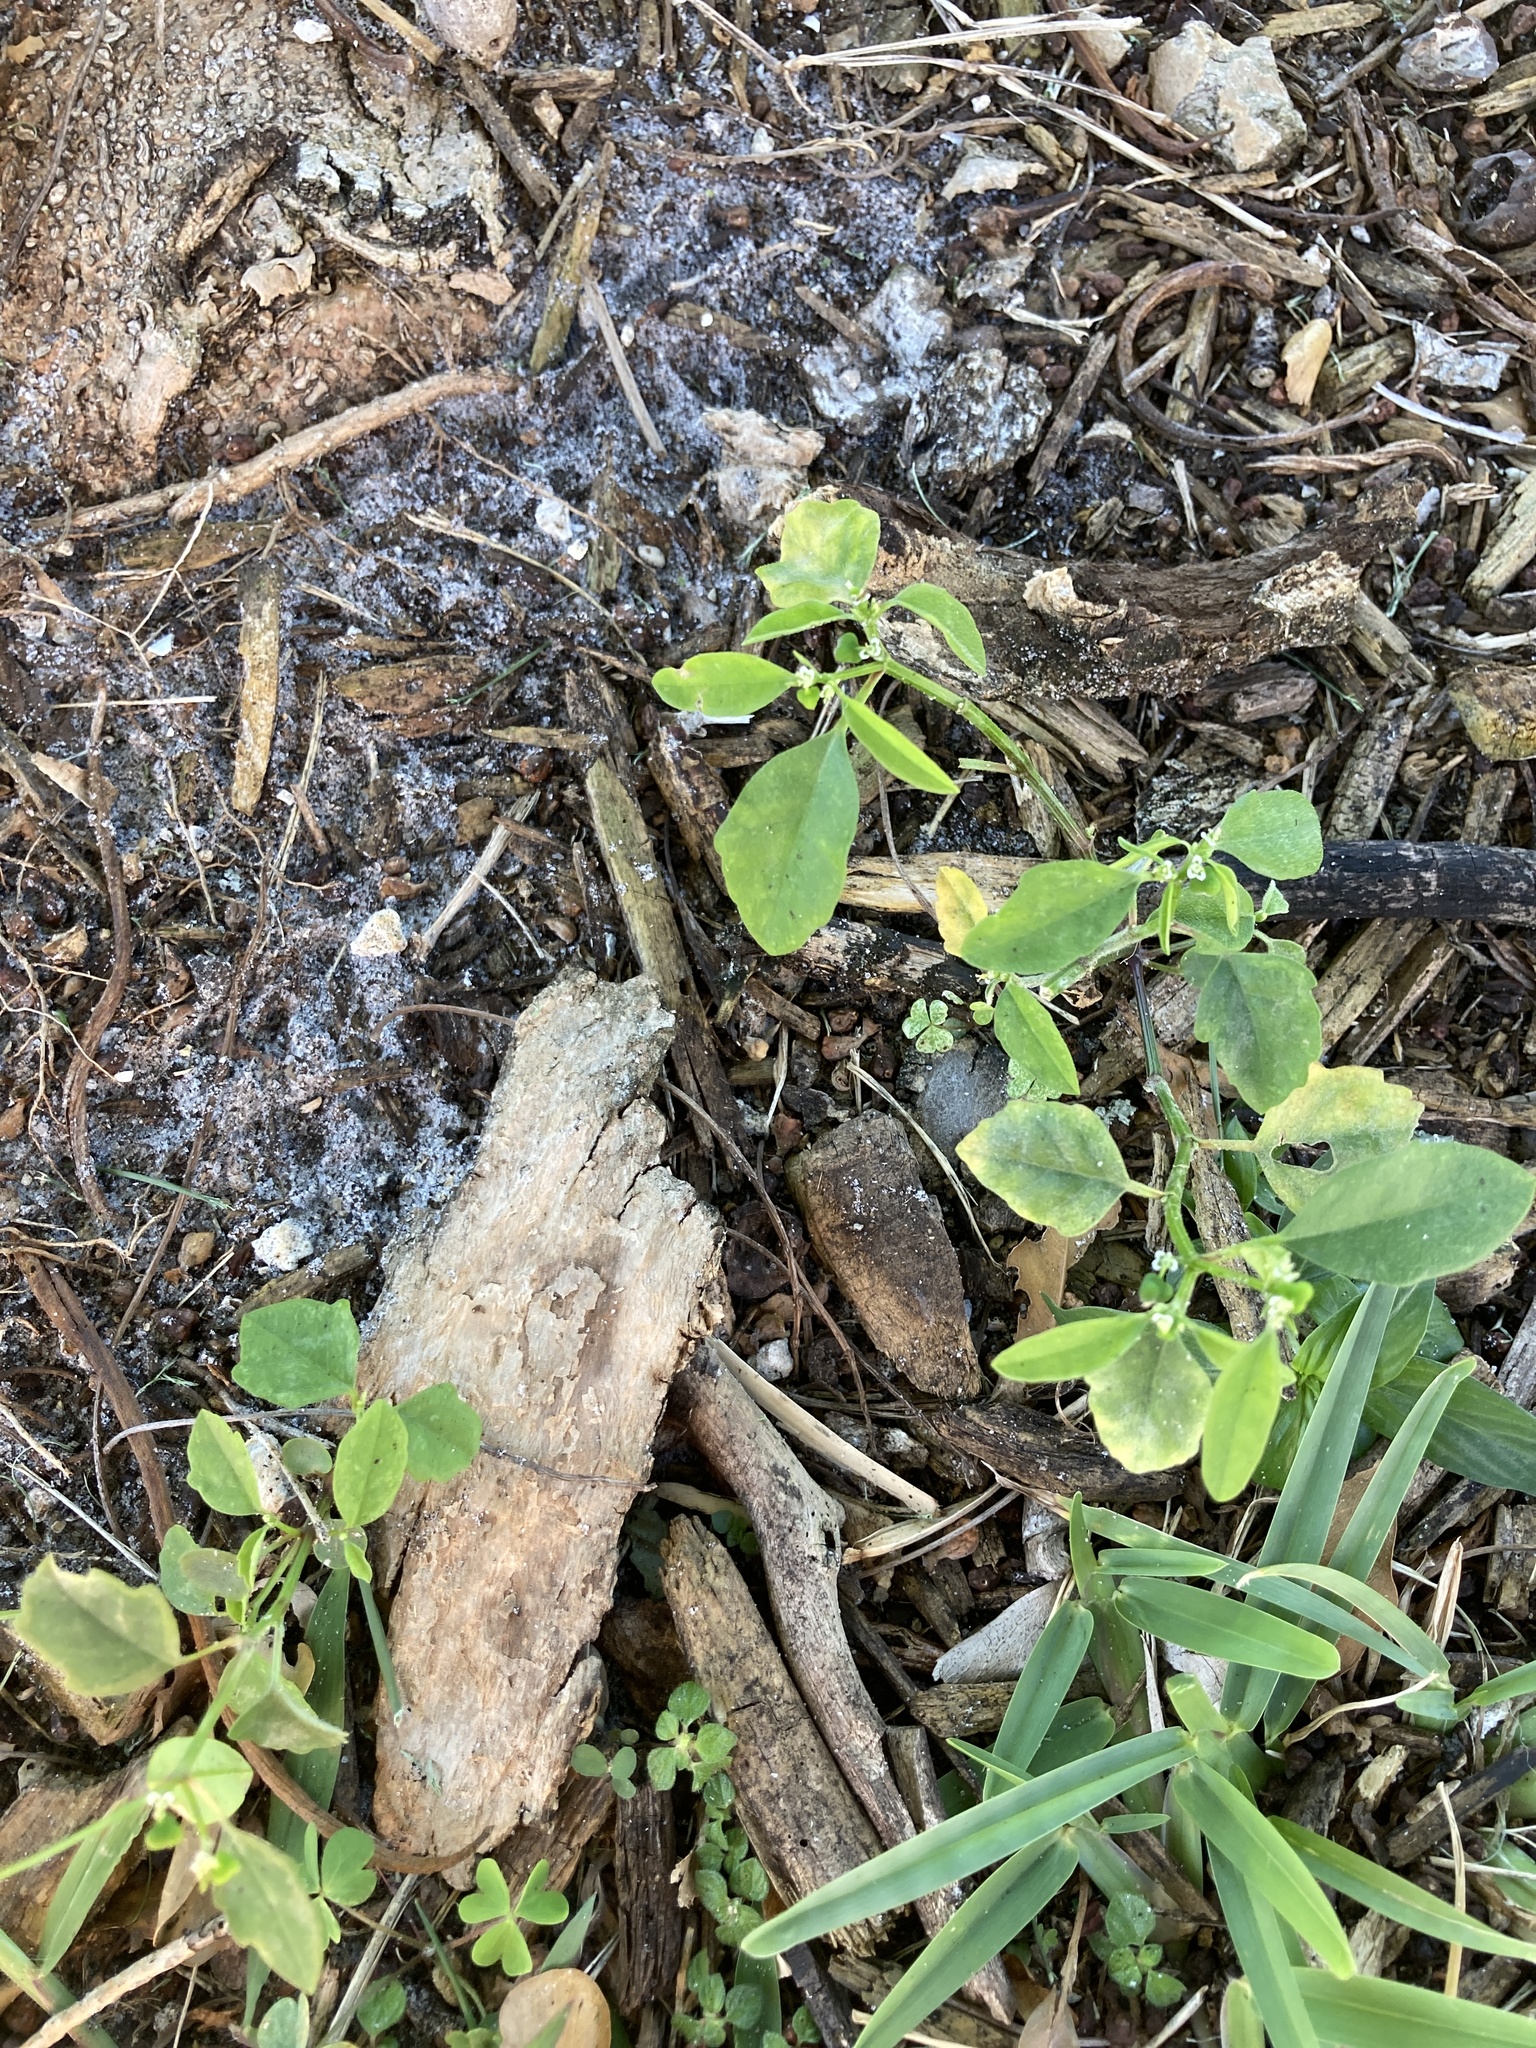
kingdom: Plantae
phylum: Tracheophyta
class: Magnoliopsida
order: Malpighiales
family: Euphorbiaceae
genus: Euphorbia
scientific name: Euphorbia graminea
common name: Grassleaf spurge
